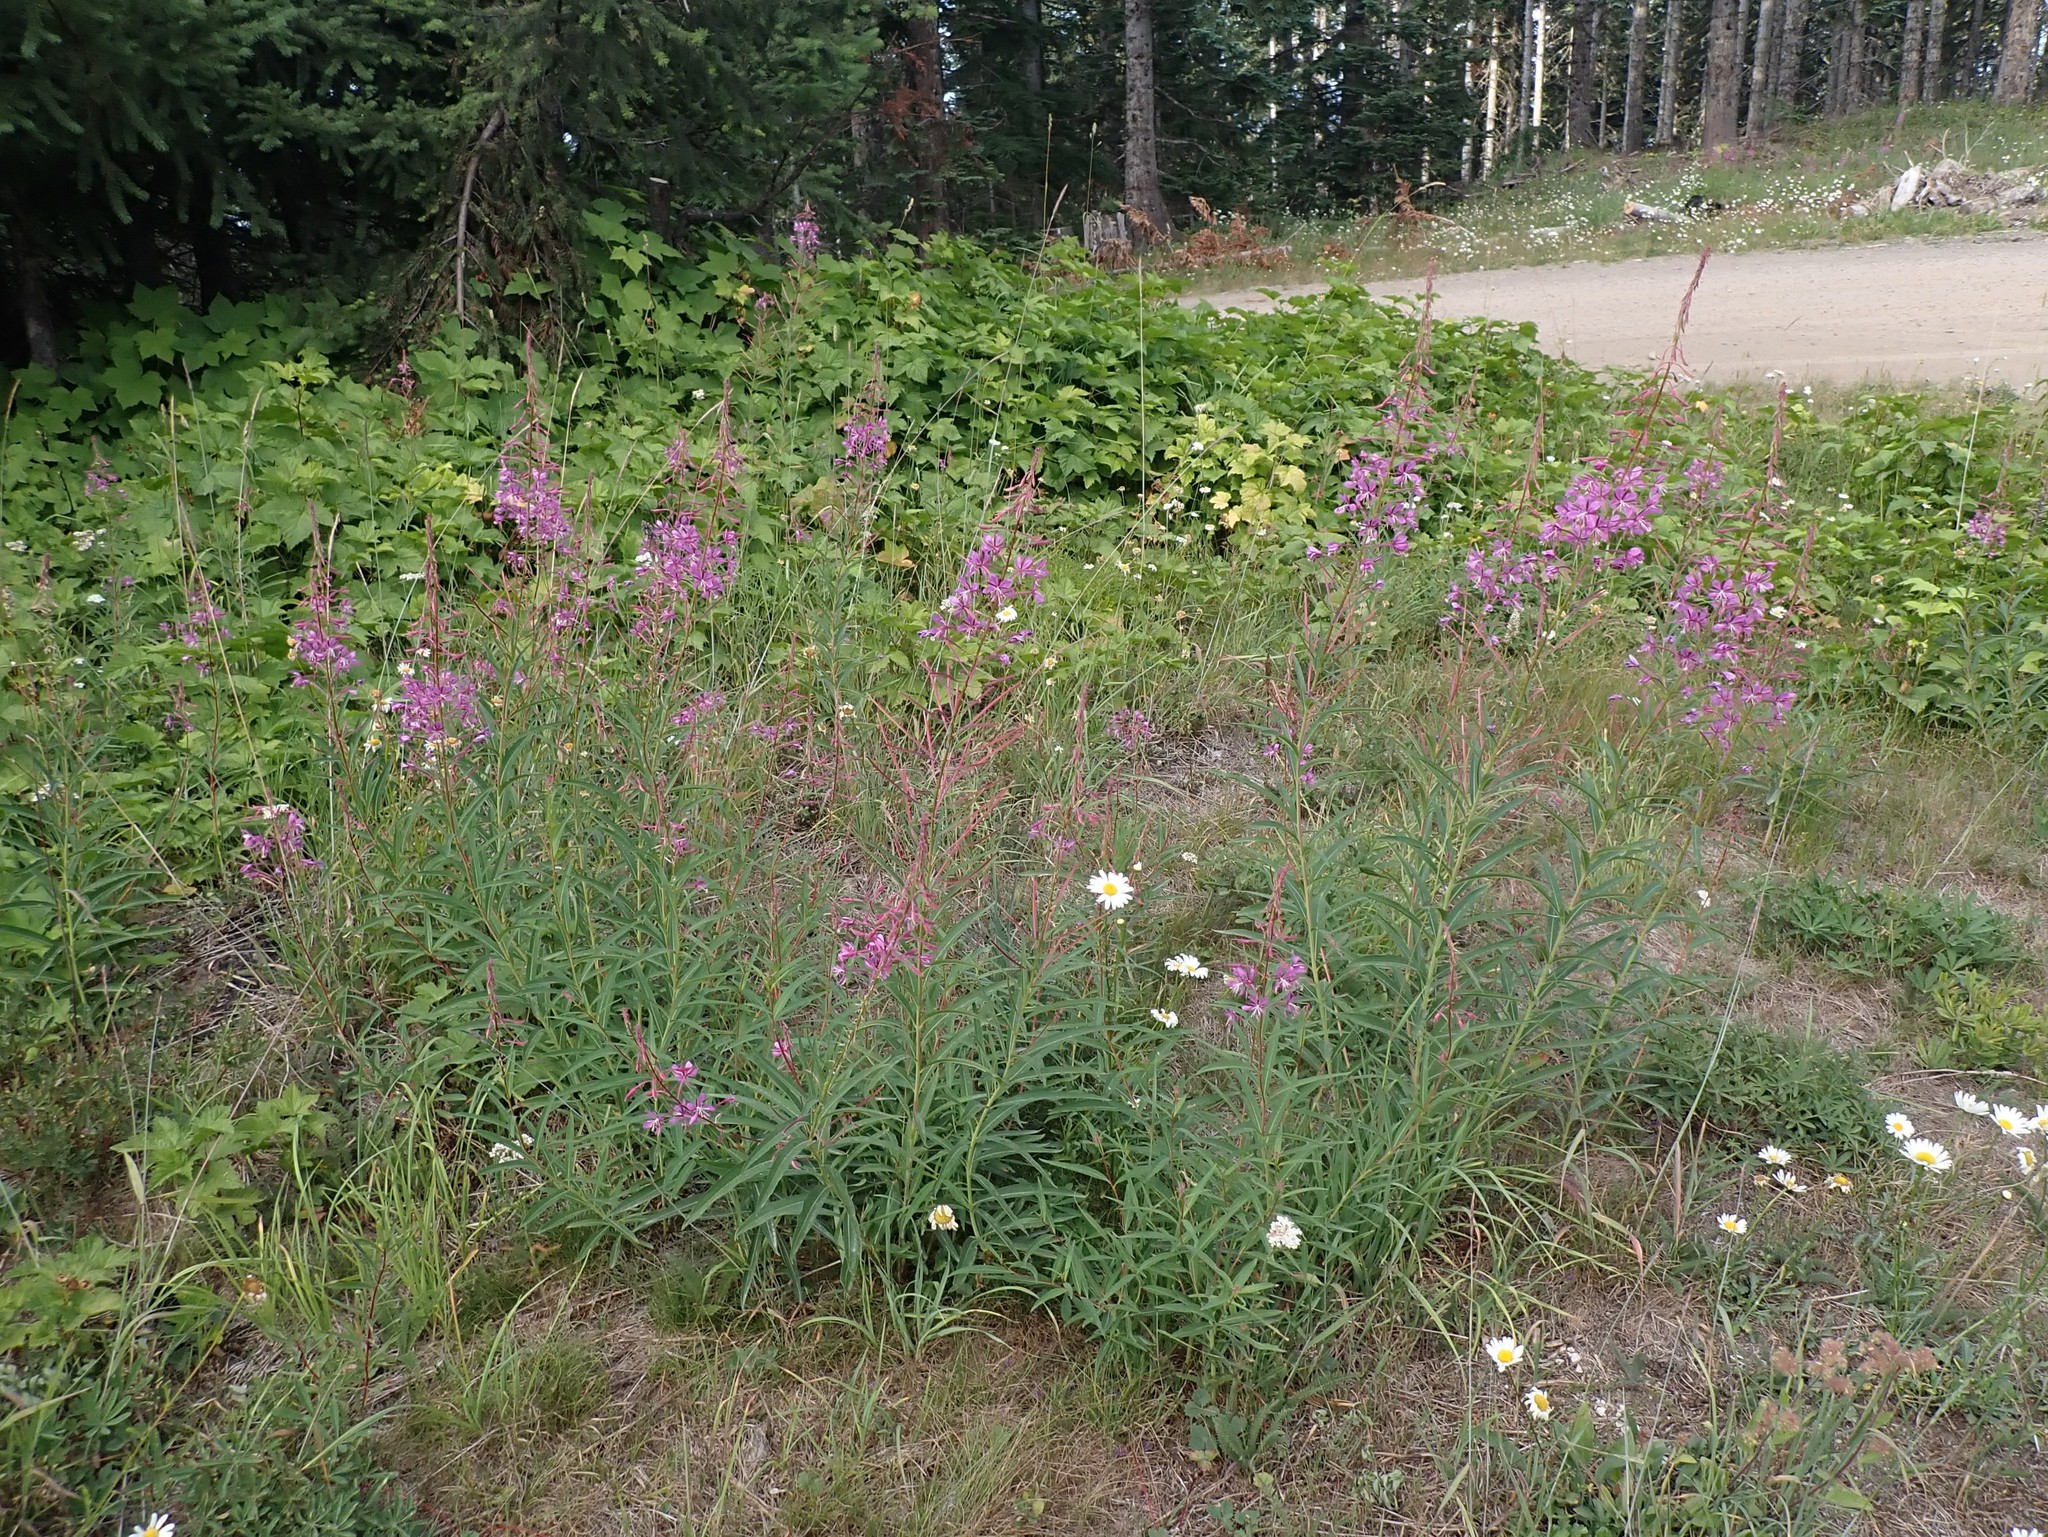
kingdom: Plantae
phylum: Tracheophyta
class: Magnoliopsida
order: Myrtales
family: Onagraceae
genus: Chamaenerion
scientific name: Chamaenerion angustifolium
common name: Fireweed
